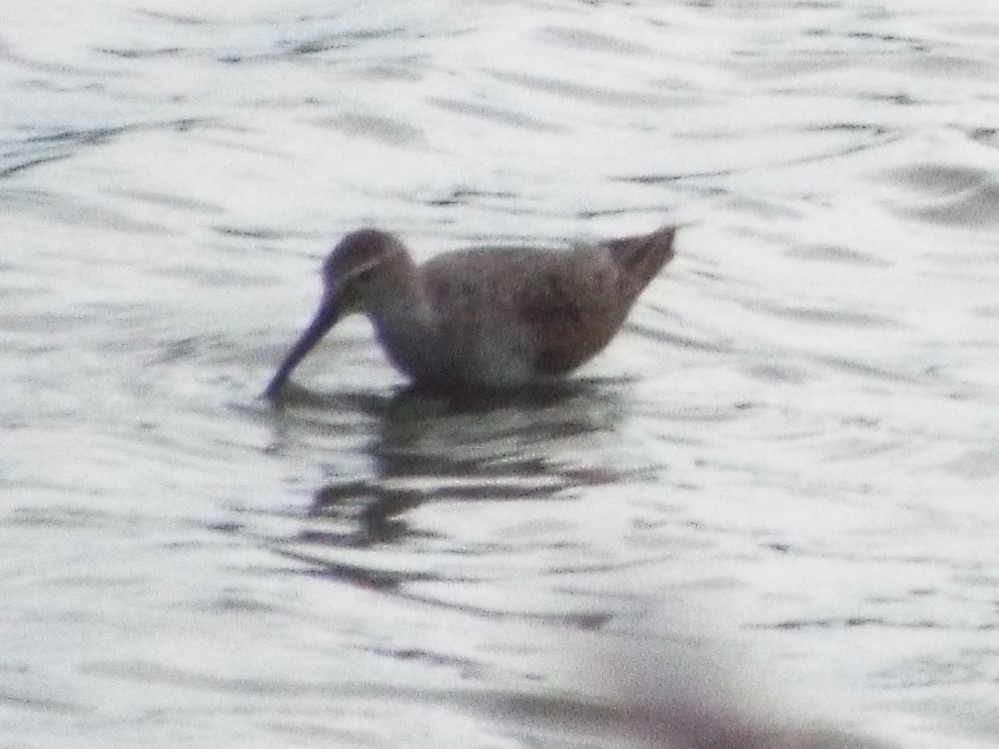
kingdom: Animalia
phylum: Chordata
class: Aves
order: Charadriiformes
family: Scolopacidae
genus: Calidris
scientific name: Calidris himantopus
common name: Stilt sandpiper
